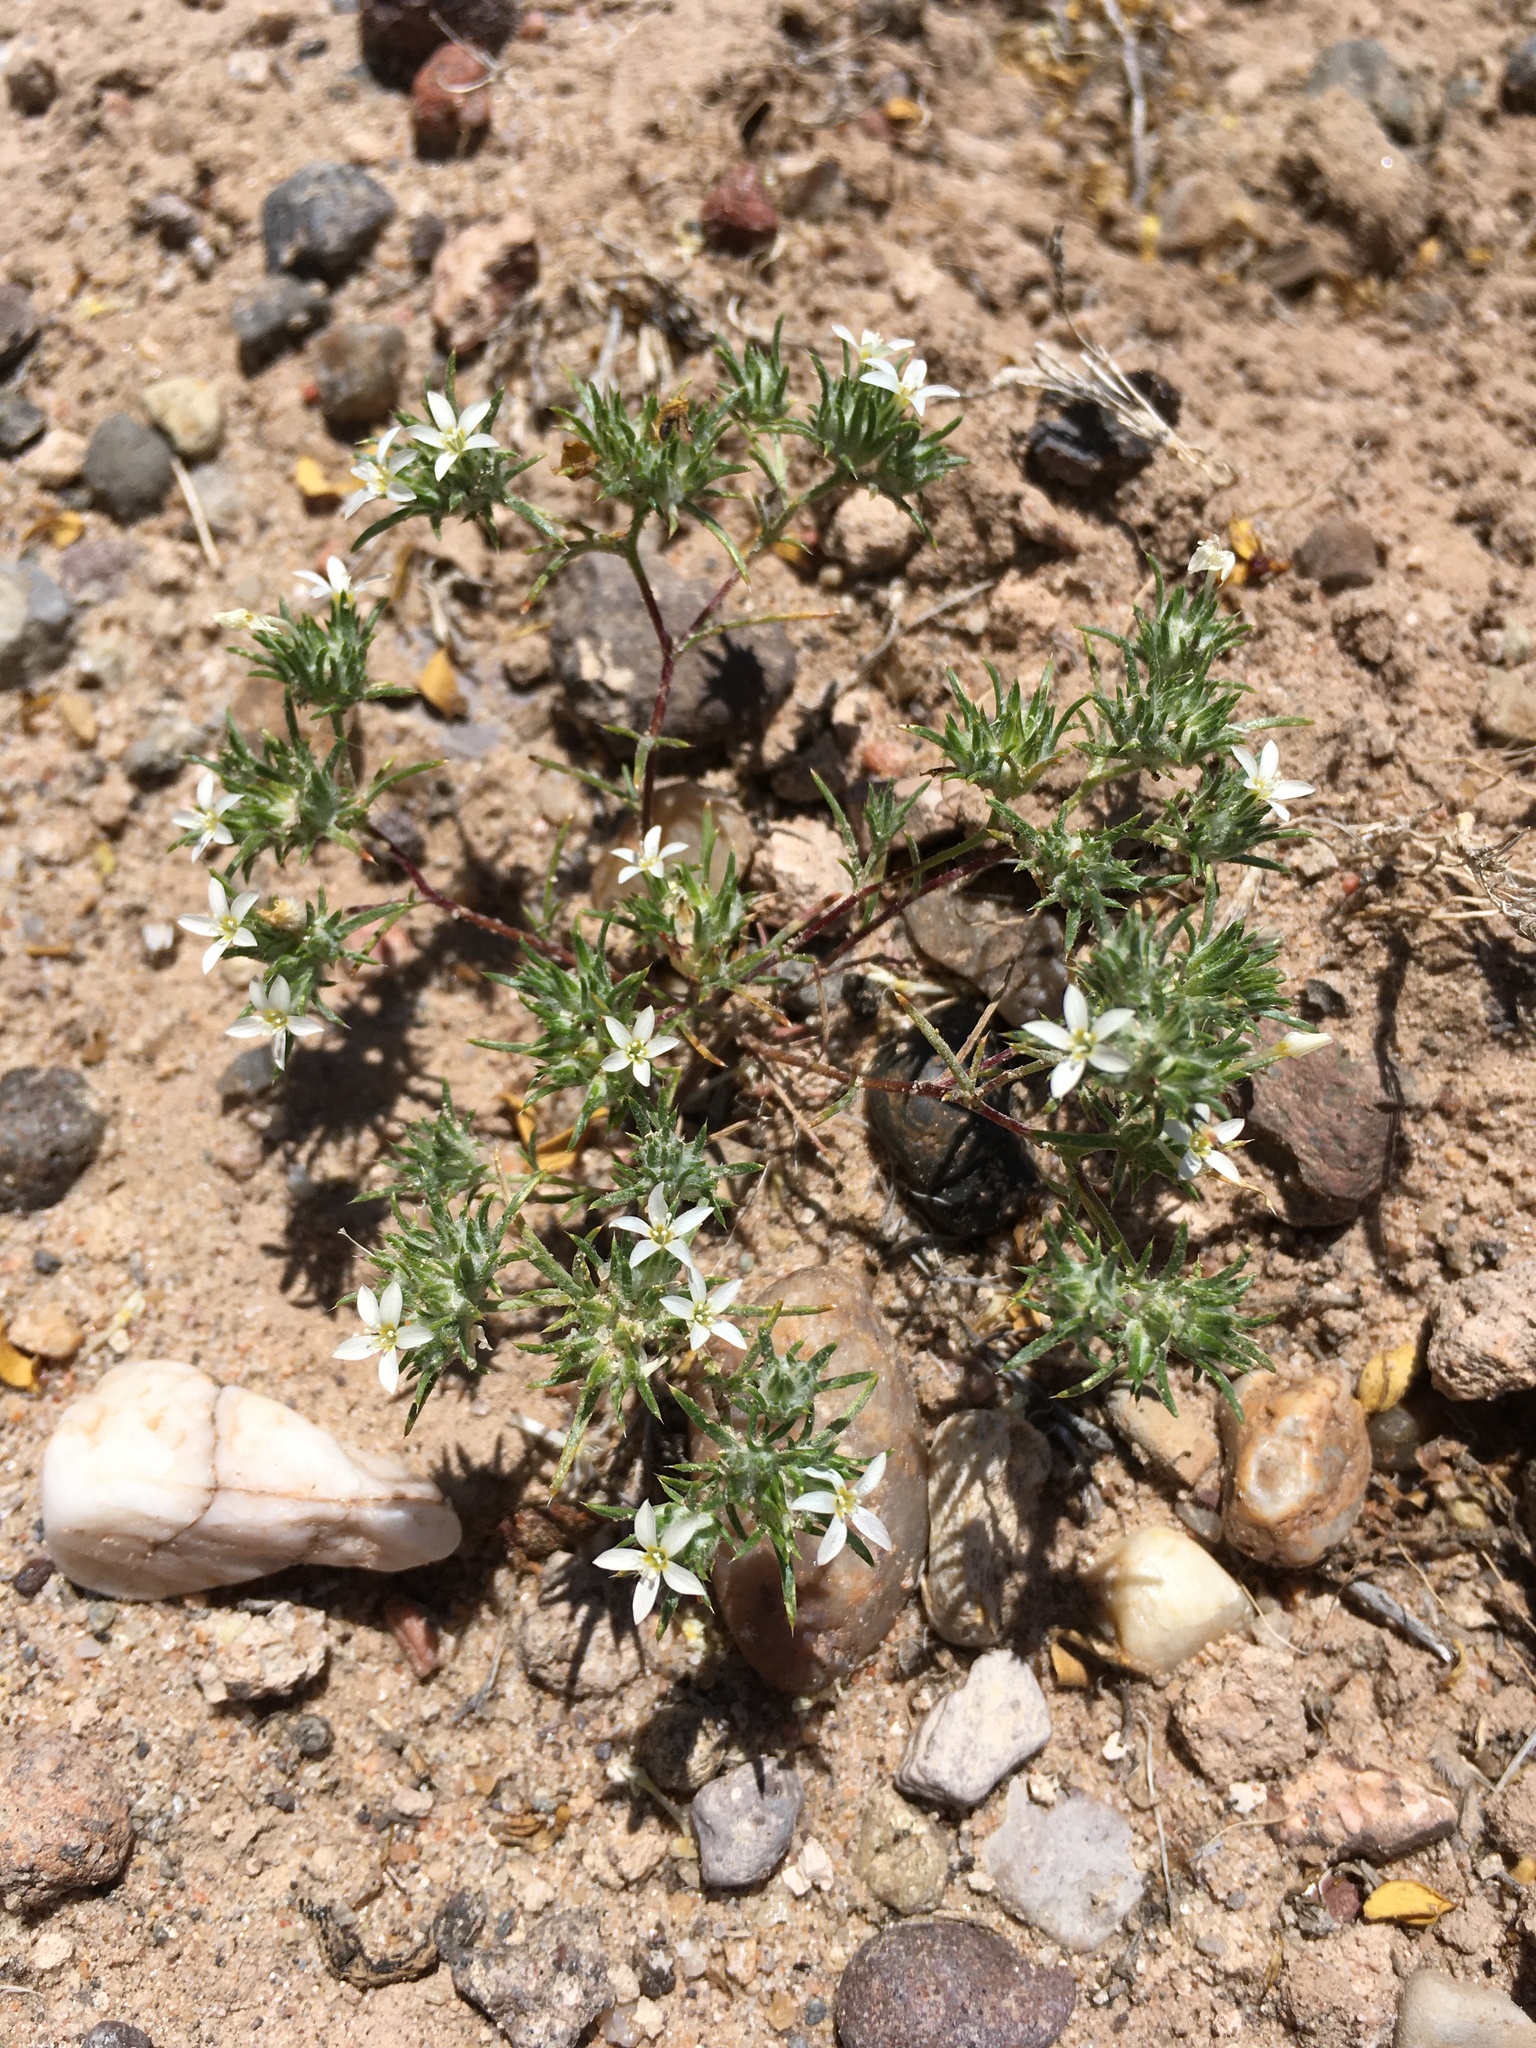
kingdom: Plantae
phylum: Tracheophyta
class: Magnoliopsida
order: Ericales
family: Polemoniaceae
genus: Eriastrum
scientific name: Eriastrum diffusum
